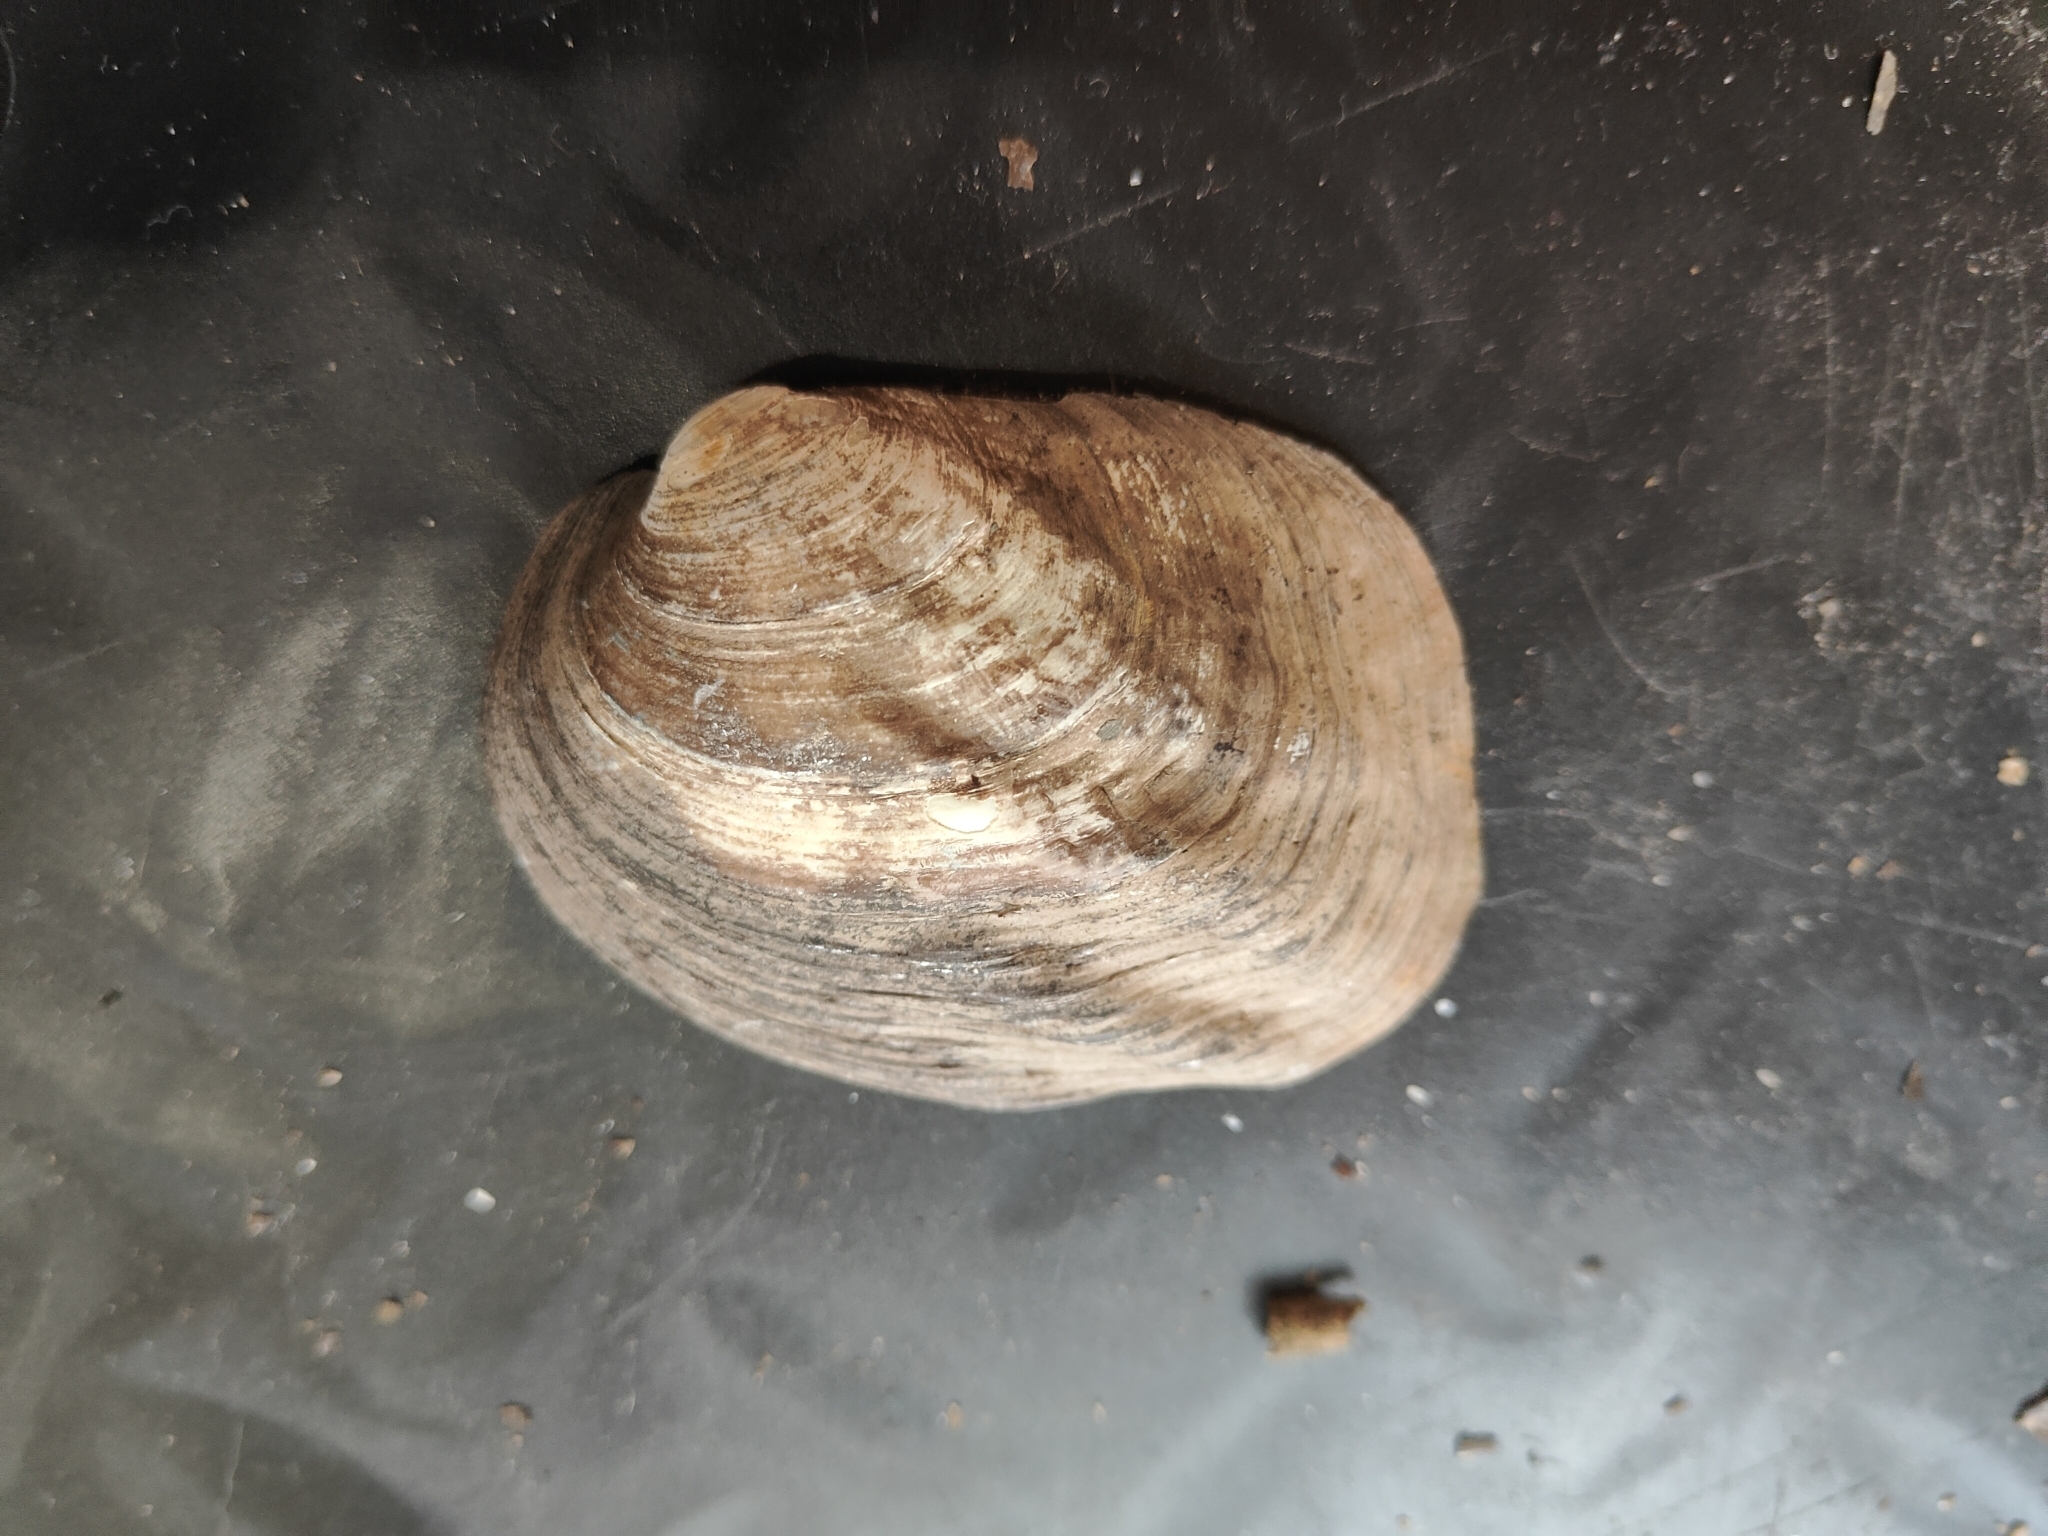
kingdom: Animalia
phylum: Mollusca
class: Bivalvia
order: Unionida
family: Unionidae
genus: Amblema
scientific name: Amblema plicata
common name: Threeridge
